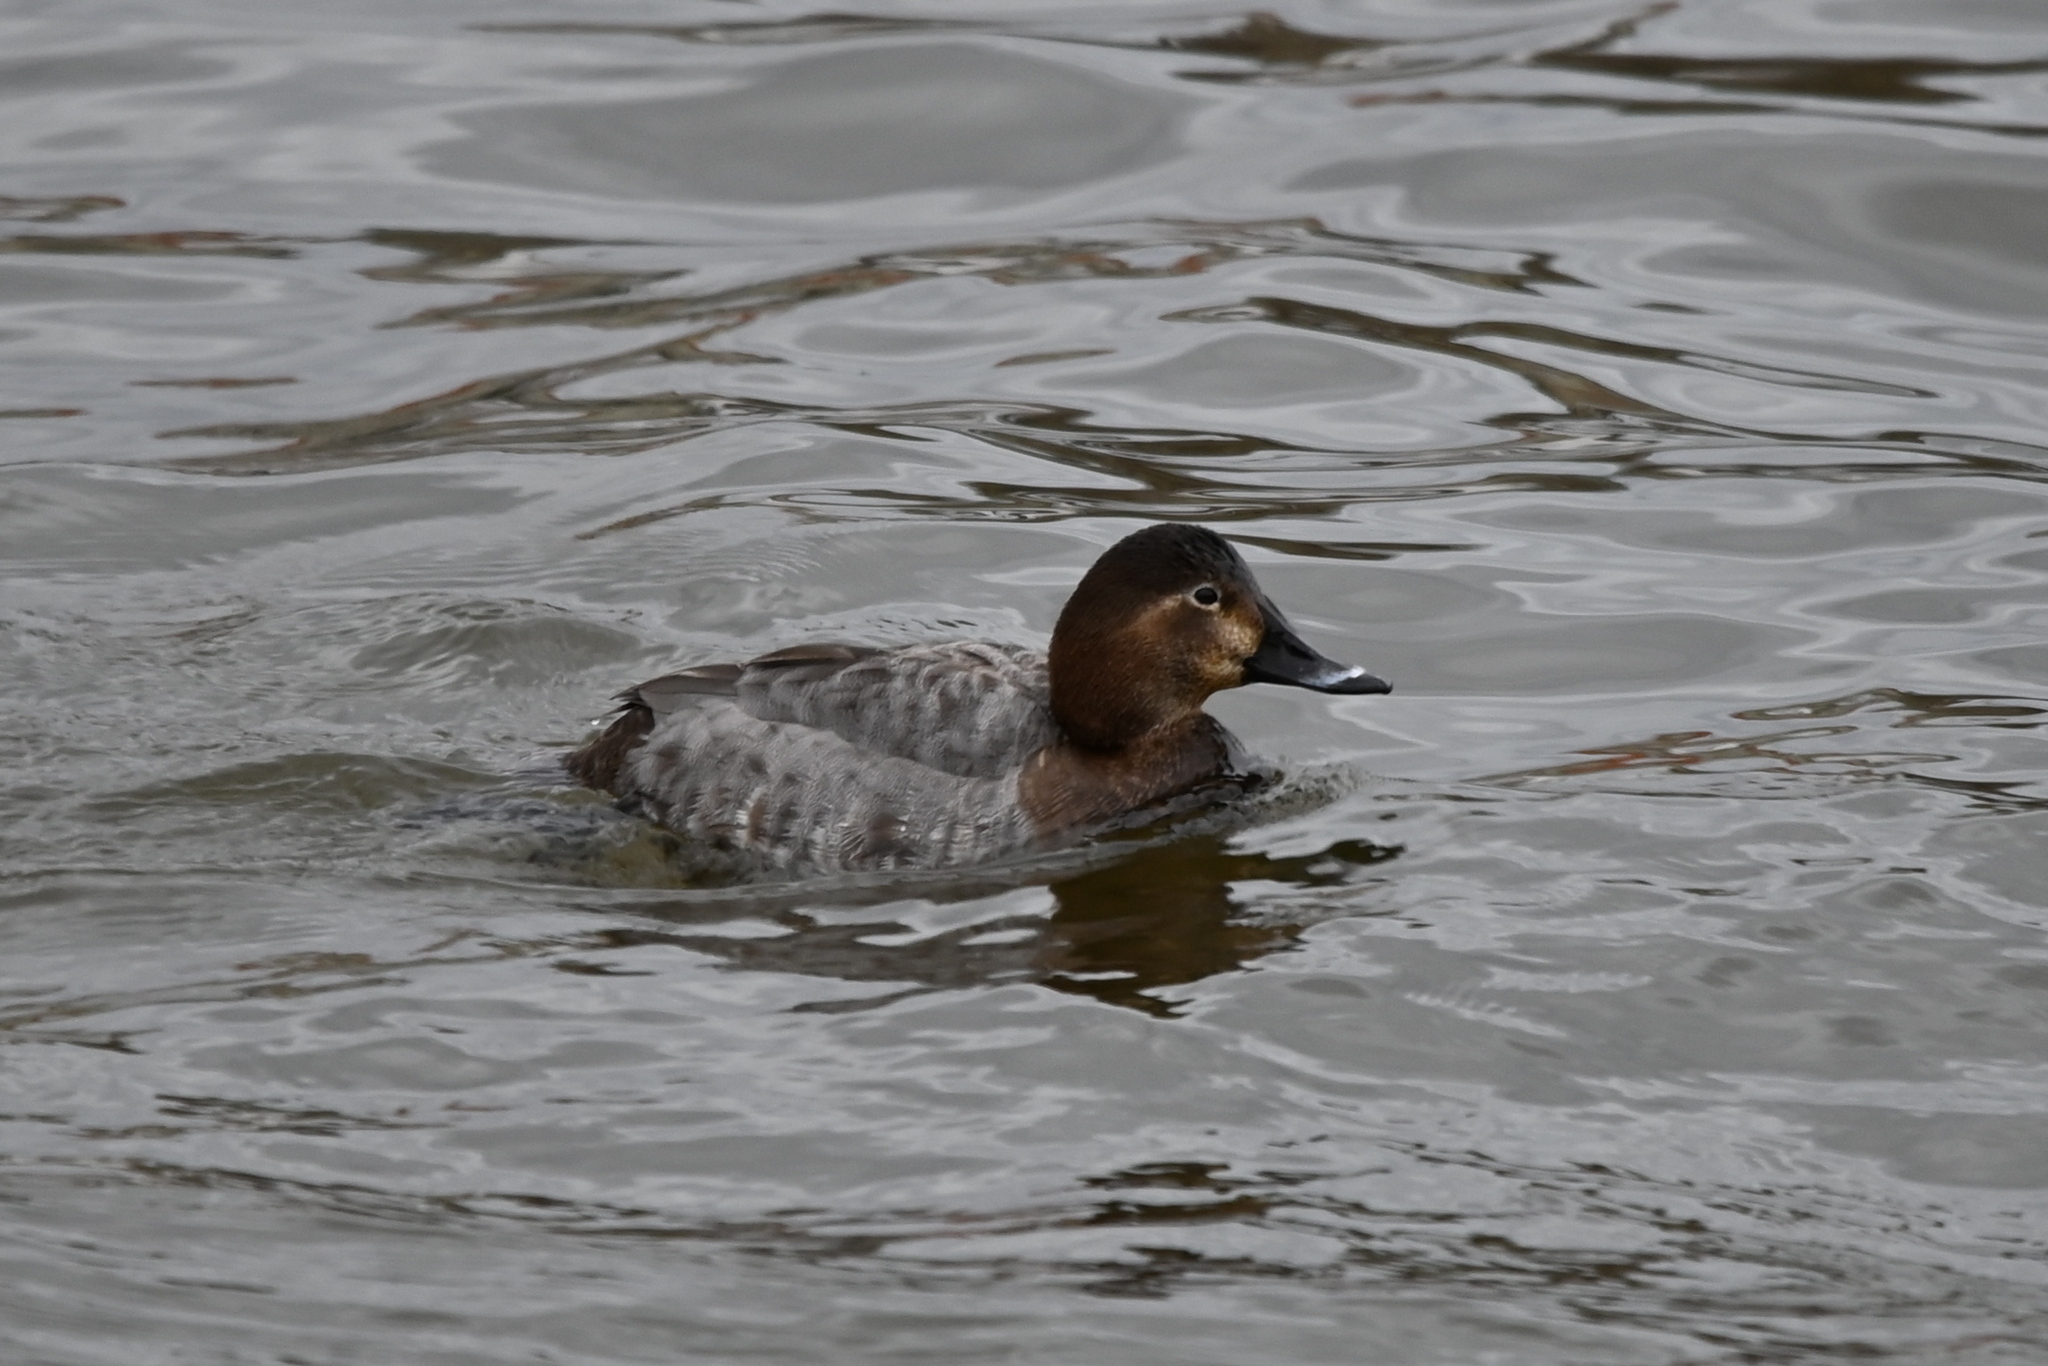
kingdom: Animalia
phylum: Chordata
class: Aves
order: Anseriformes
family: Anatidae
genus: Aythya
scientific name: Aythya ferina
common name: Common pochard
